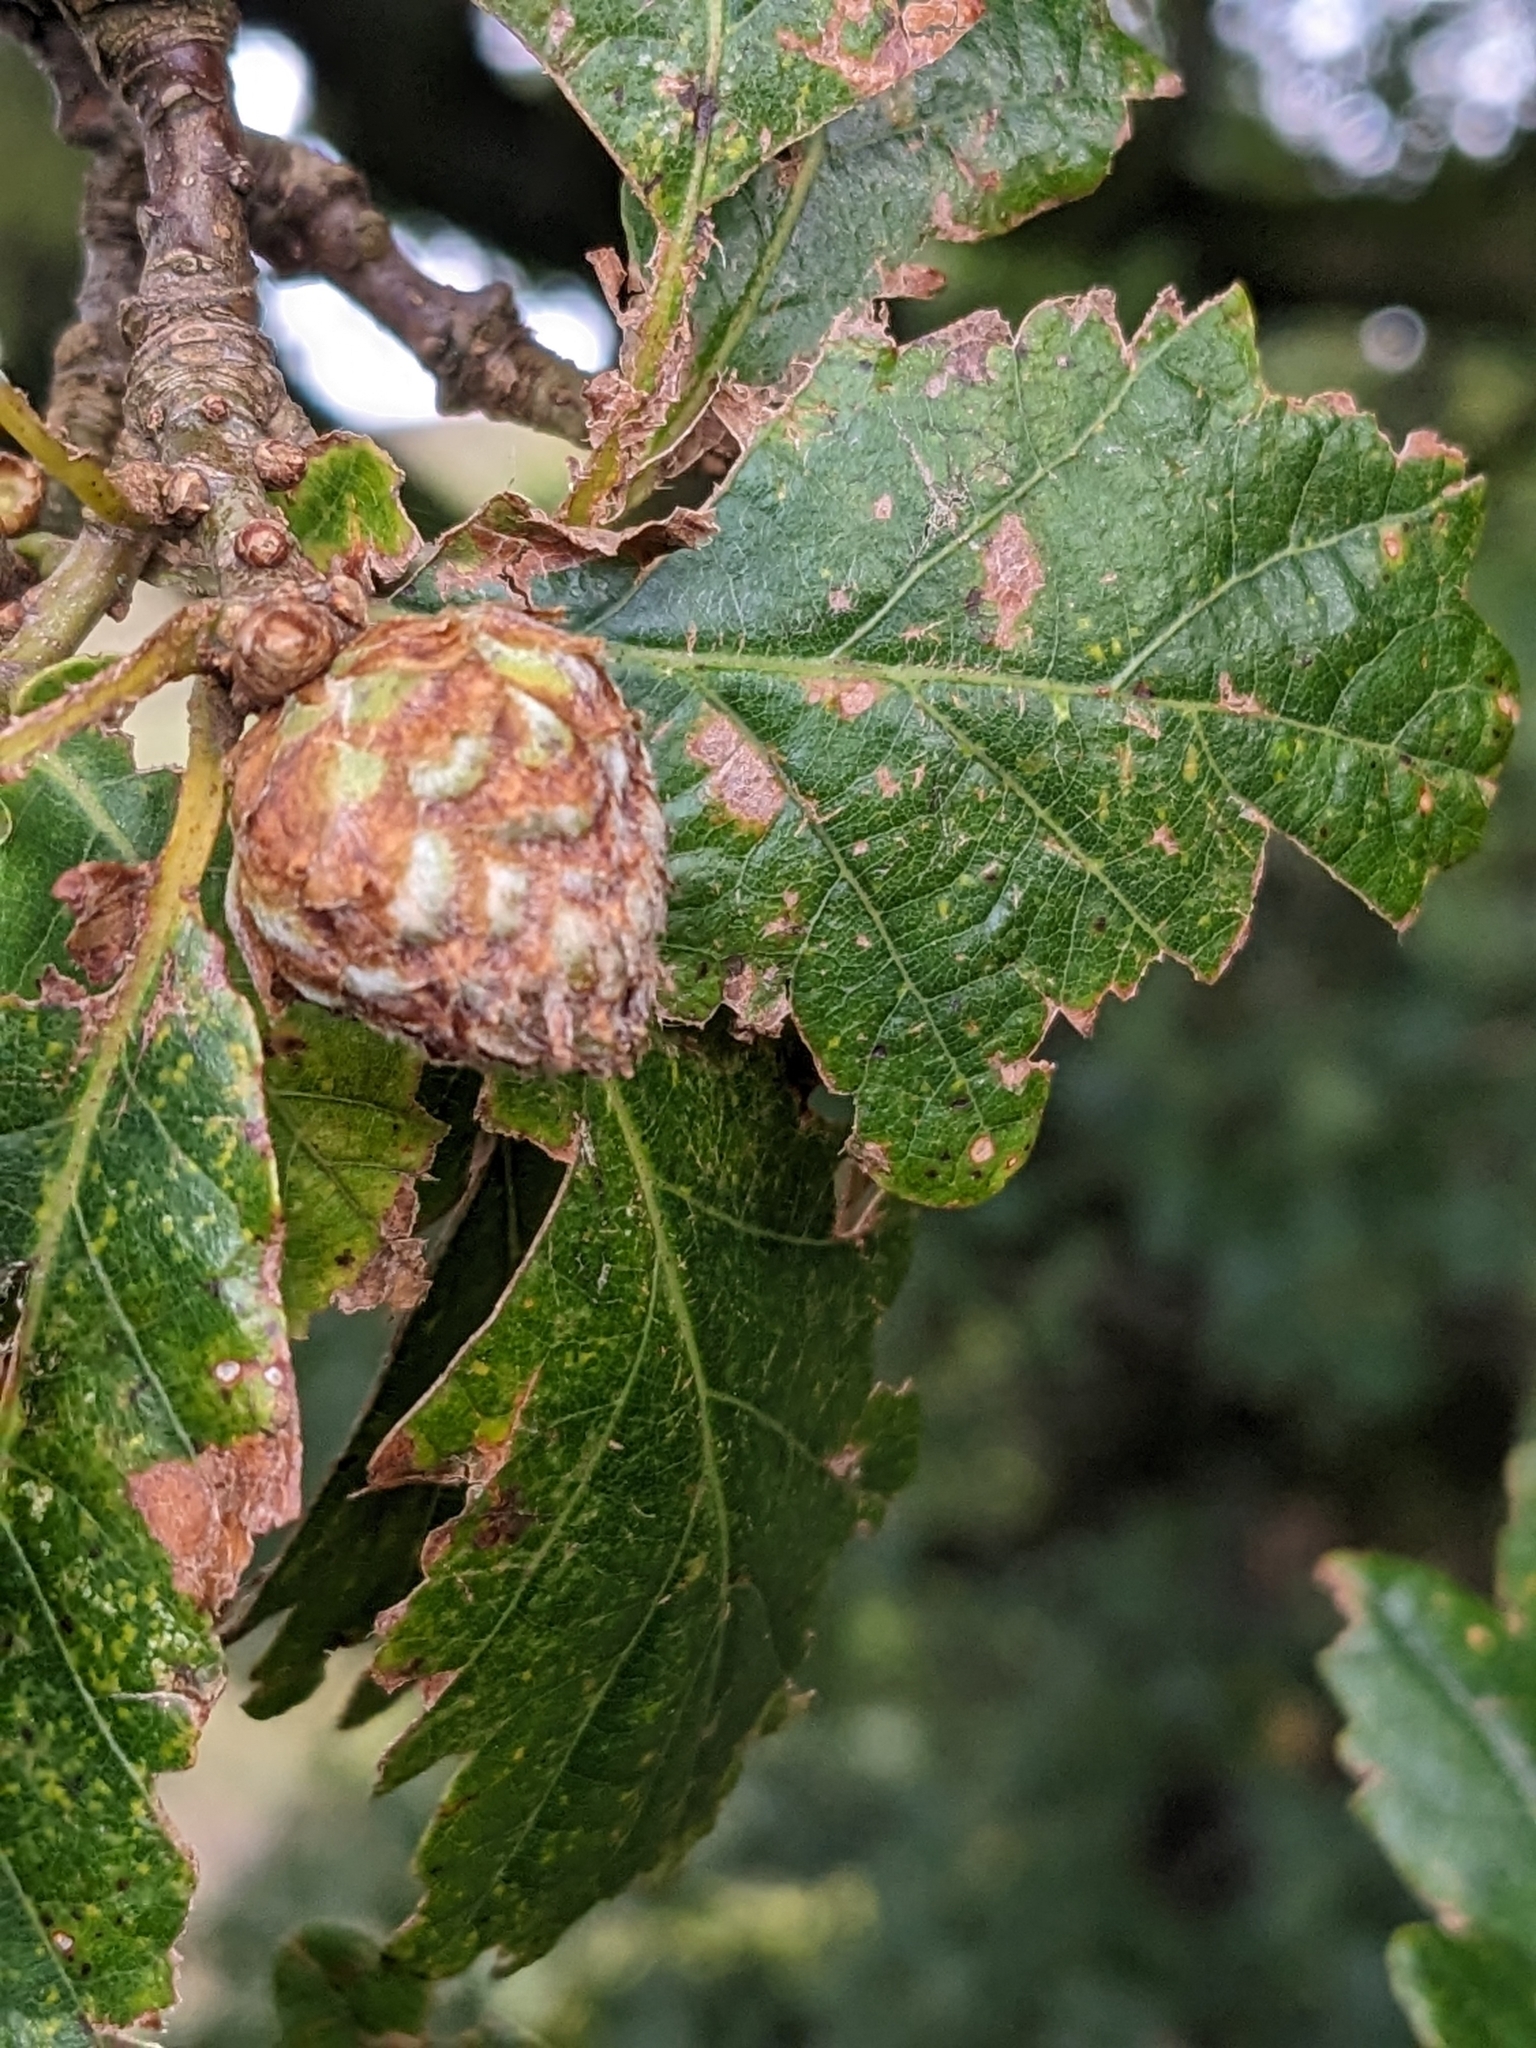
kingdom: Animalia
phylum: Arthropoda
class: Insecta
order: Hymenoptera
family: Cynipidae
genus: Andricus
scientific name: Andricus foecundatrix
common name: Artichoke gall
